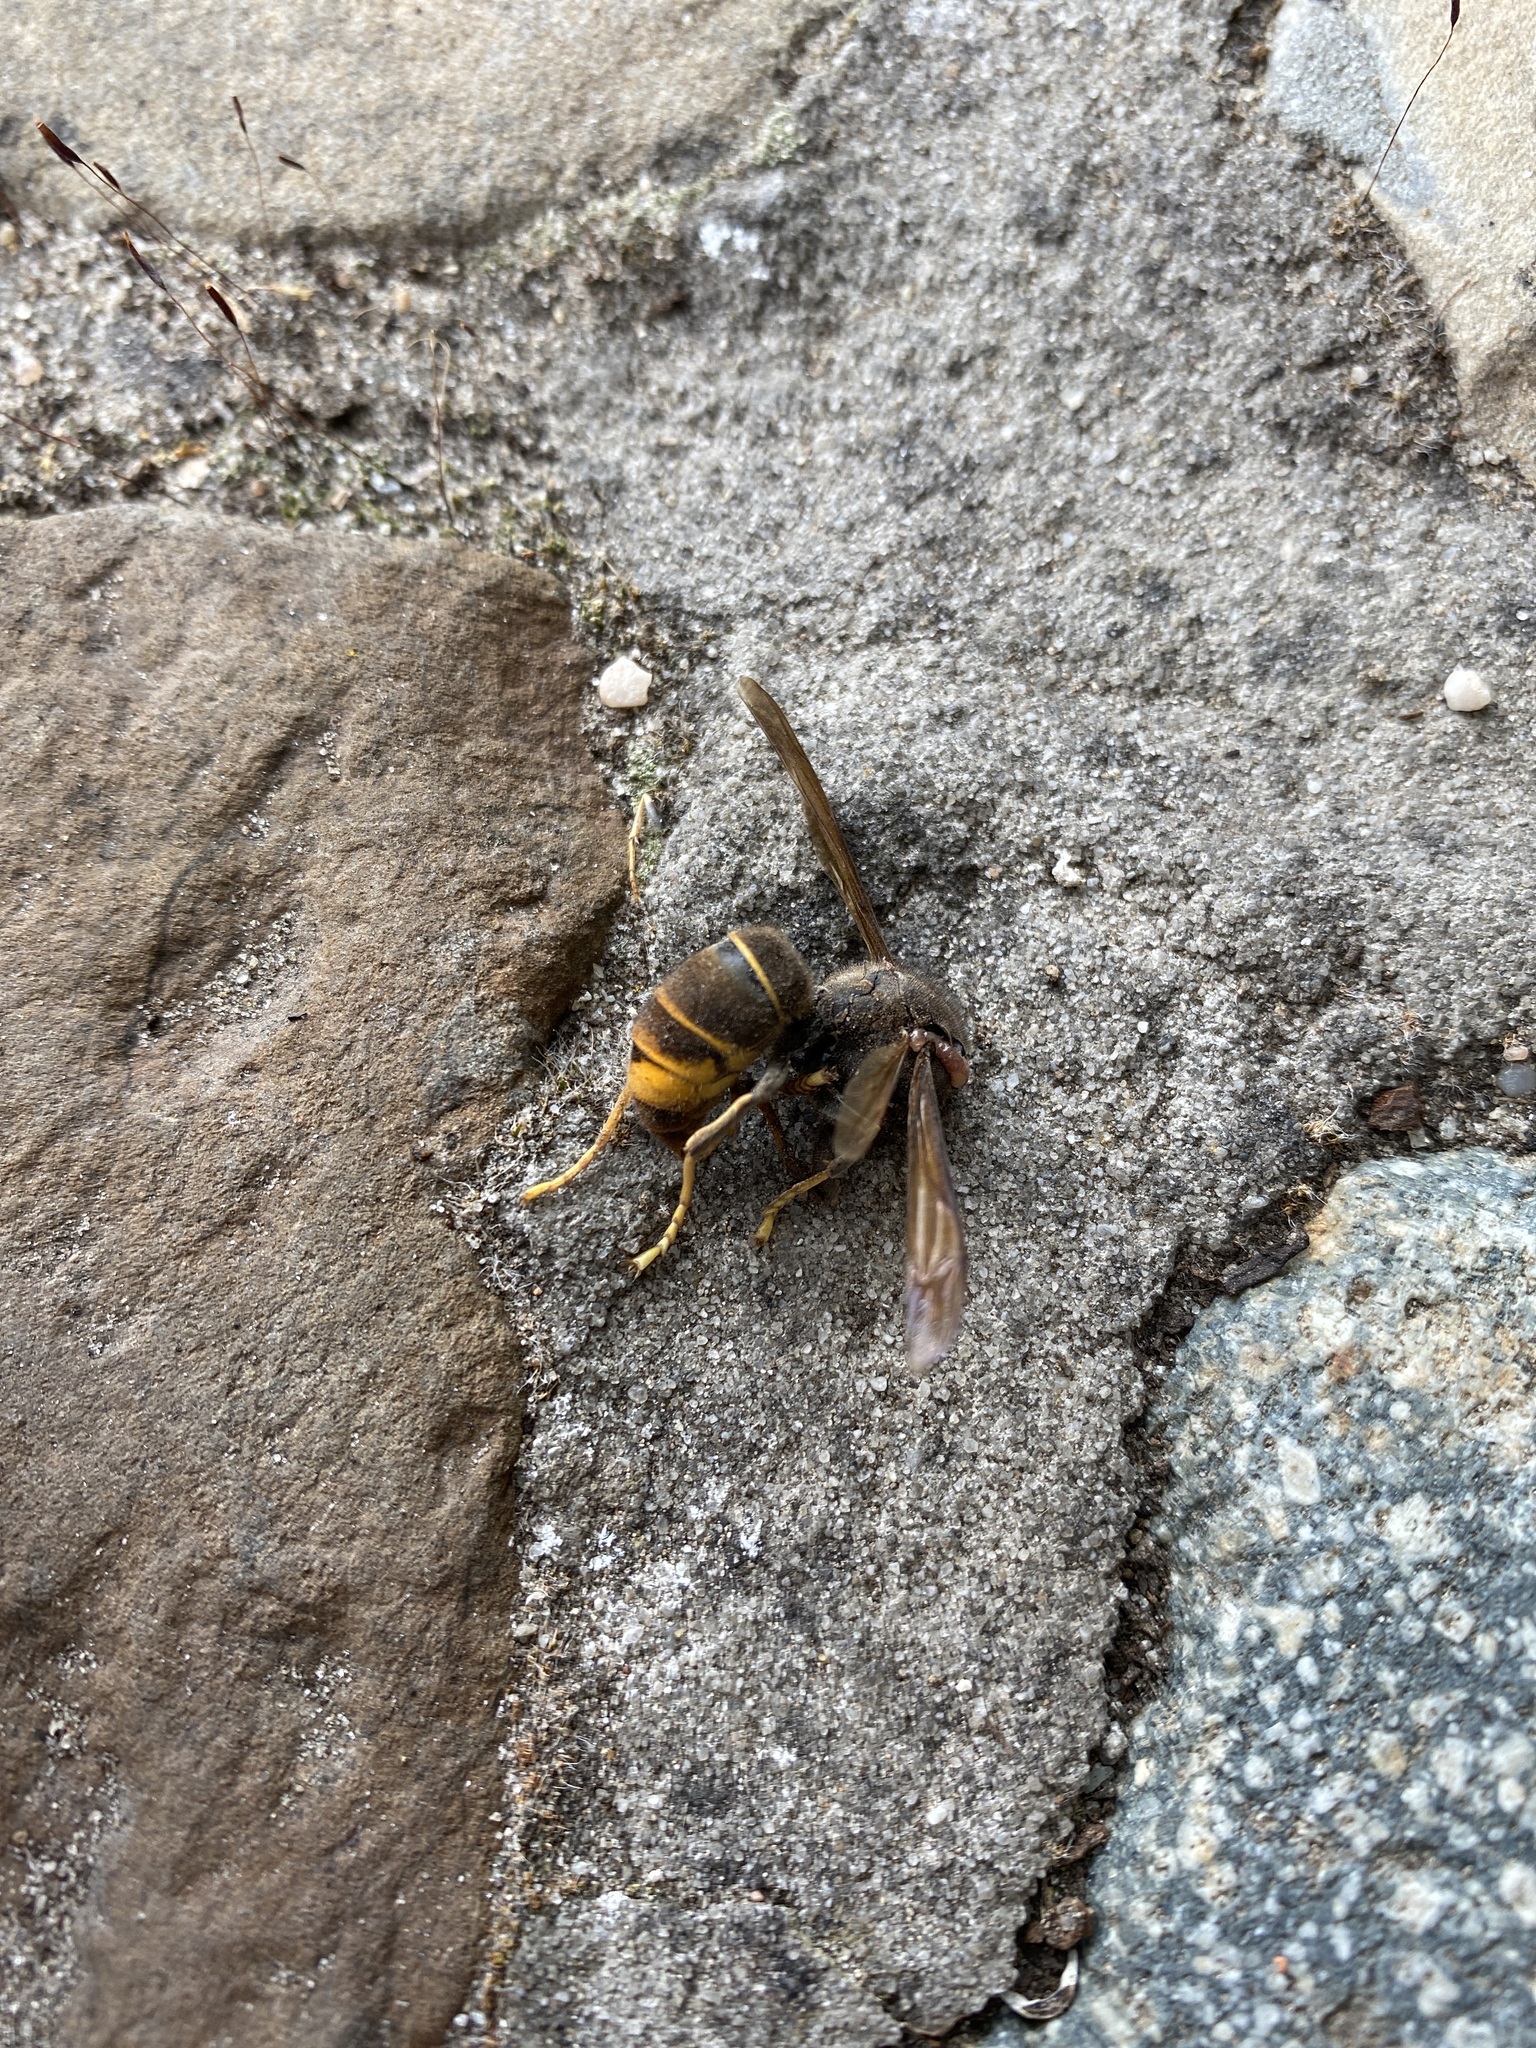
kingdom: Animalia
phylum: Arthropoda
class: Insecta
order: Hymenoptera
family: Vespidae
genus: Vespa
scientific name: Vespa velutina
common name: Asian hornet
